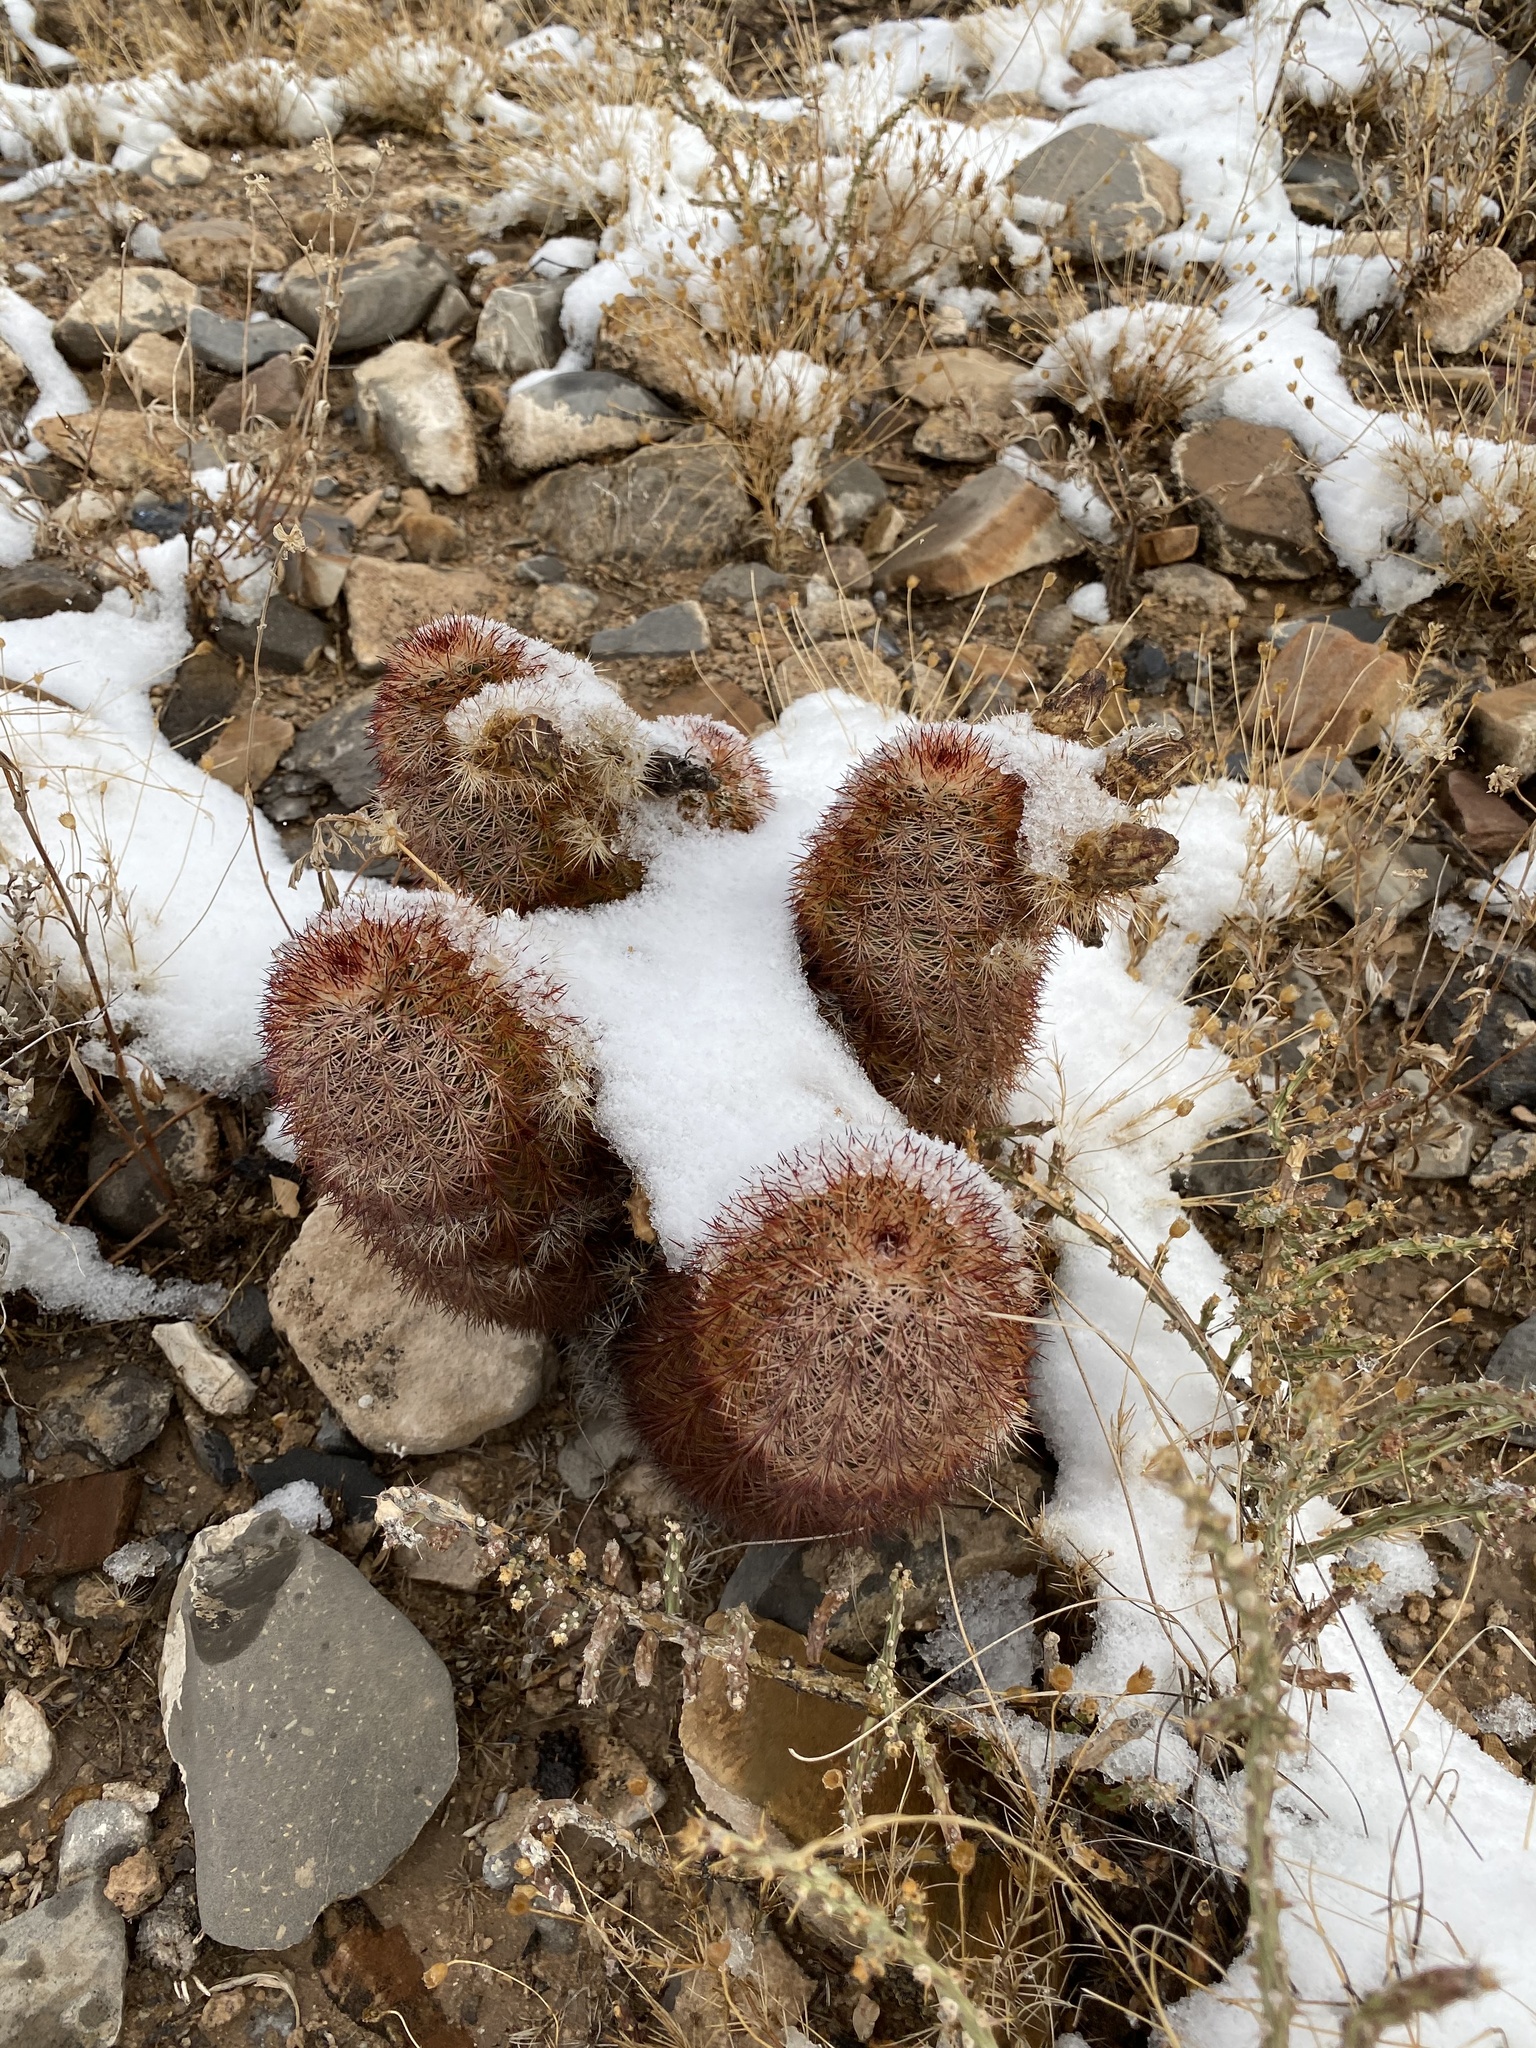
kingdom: Plantae
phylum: Tracheophyta
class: Magnoliopsida
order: Caryophyllales
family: Cactaceae
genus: Echinocereus
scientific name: Echinocereus dasyacanthus
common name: Spiny hedgehog cactus
